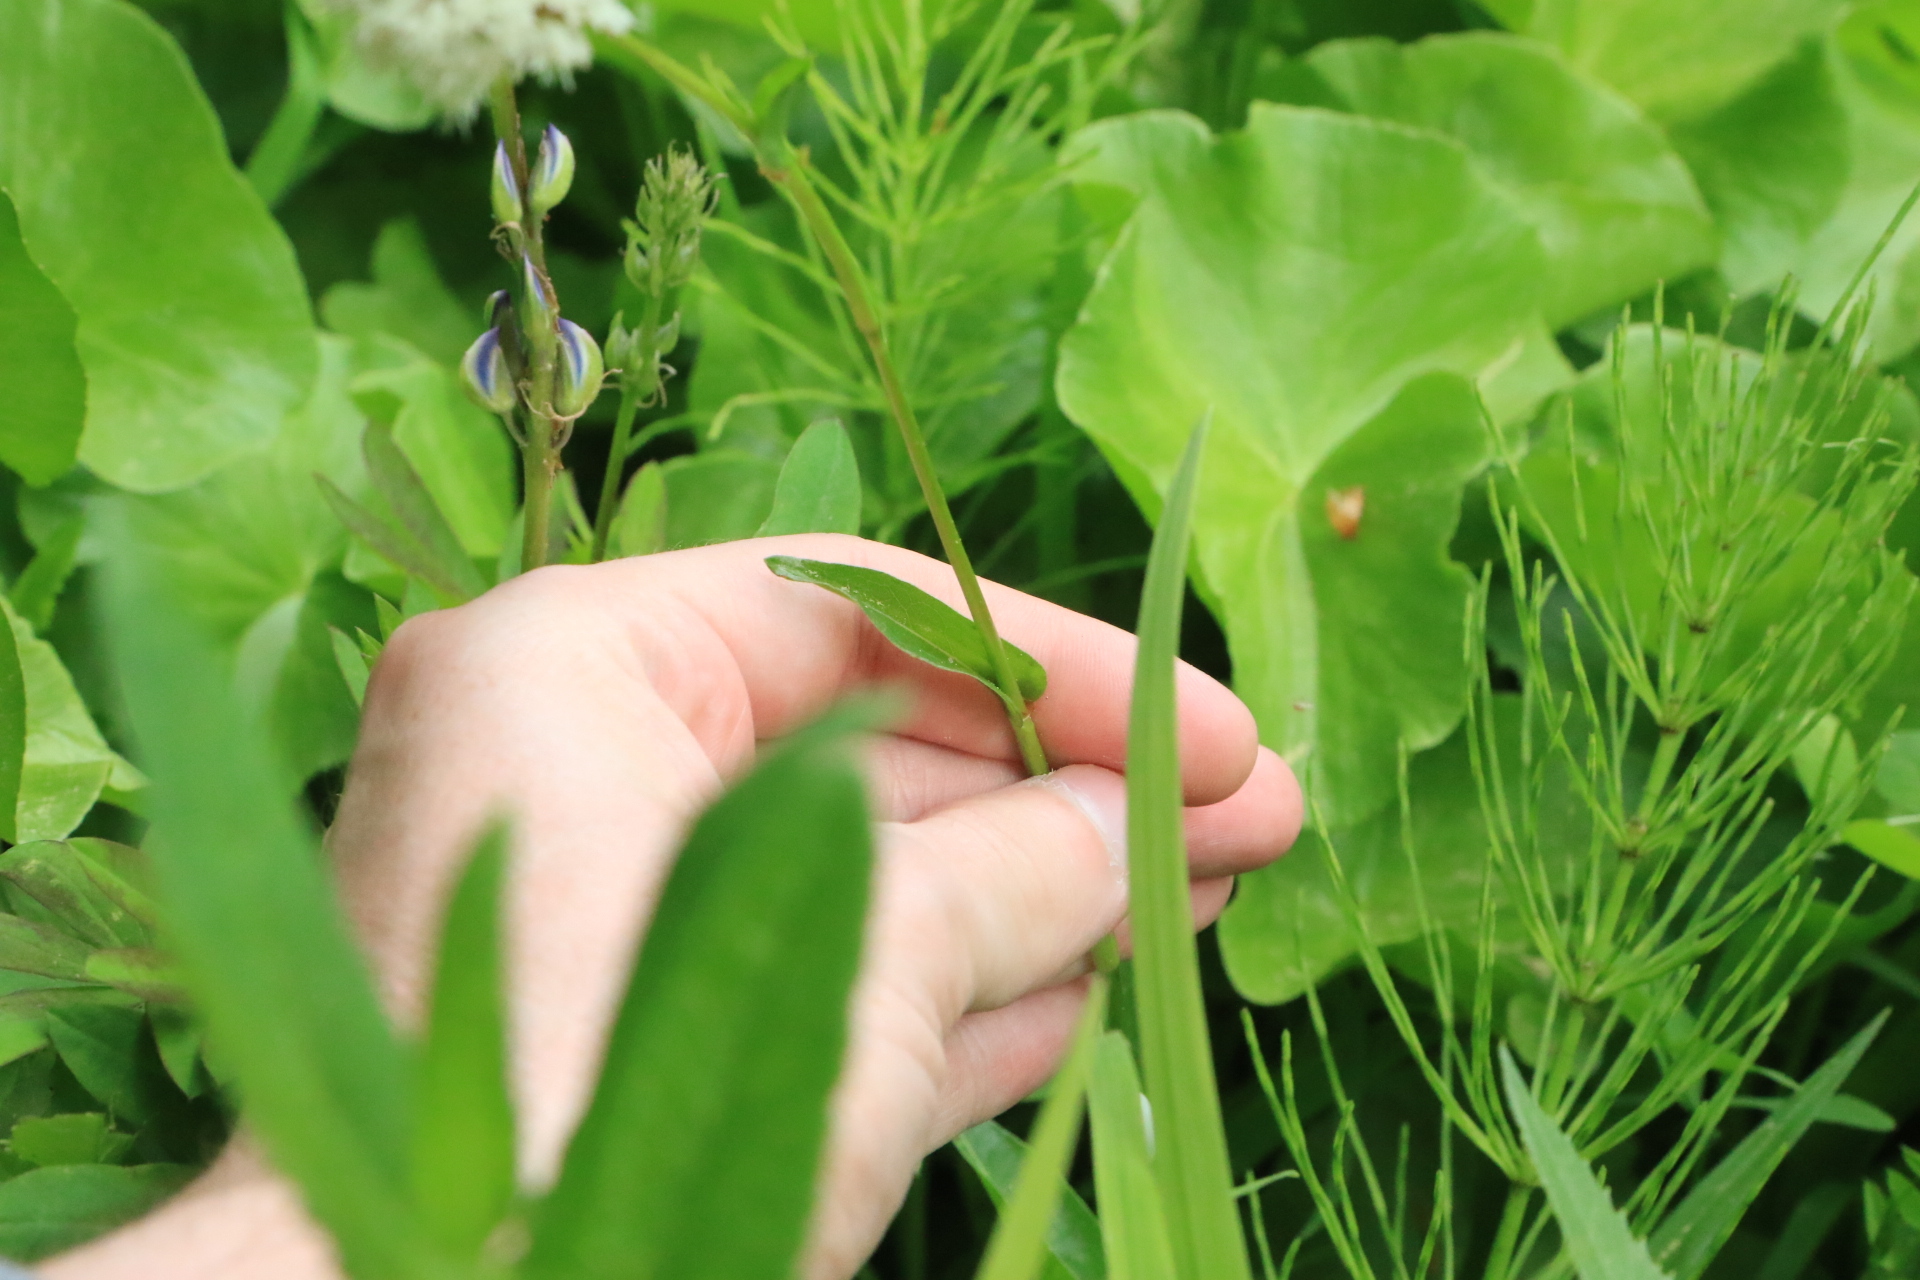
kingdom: Plantae
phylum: Tracheophyta
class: Magnoliopsida
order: Caryophyllales
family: Polygonaceae
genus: Bistorta
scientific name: Bistorta bistortoides
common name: American bistort
